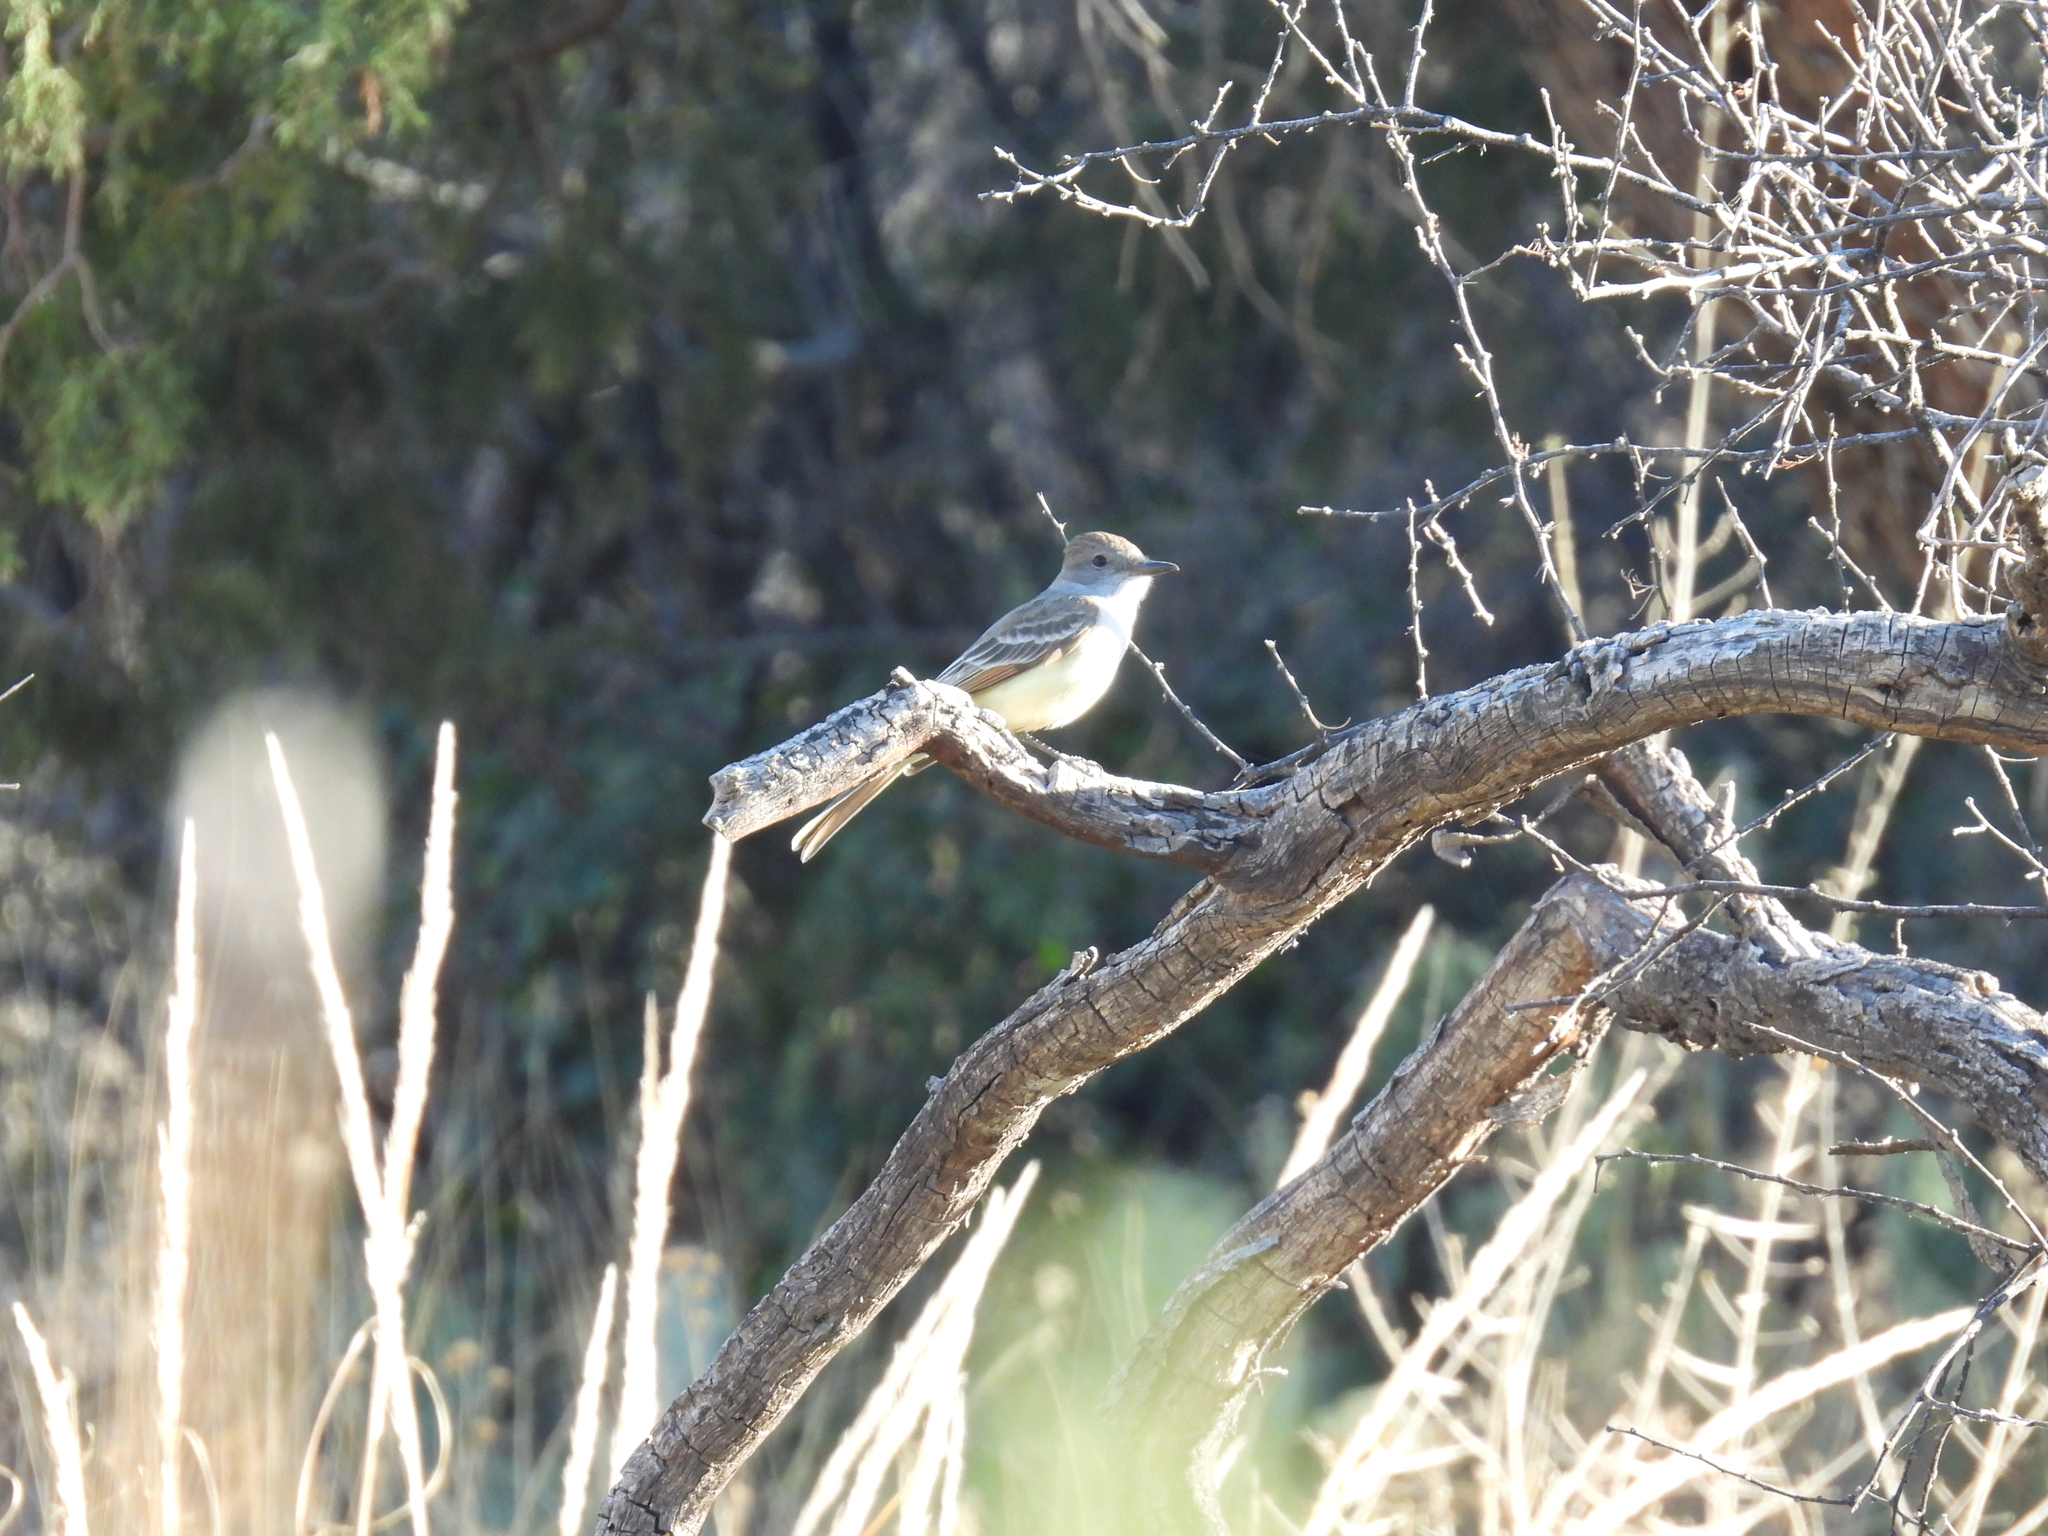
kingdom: Animalia
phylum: Chordata
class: Aves
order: Passeriformes
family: Tyrannidae
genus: Myiarchus
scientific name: Myiarchus cinerascens
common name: Ash-throated flycatcher
